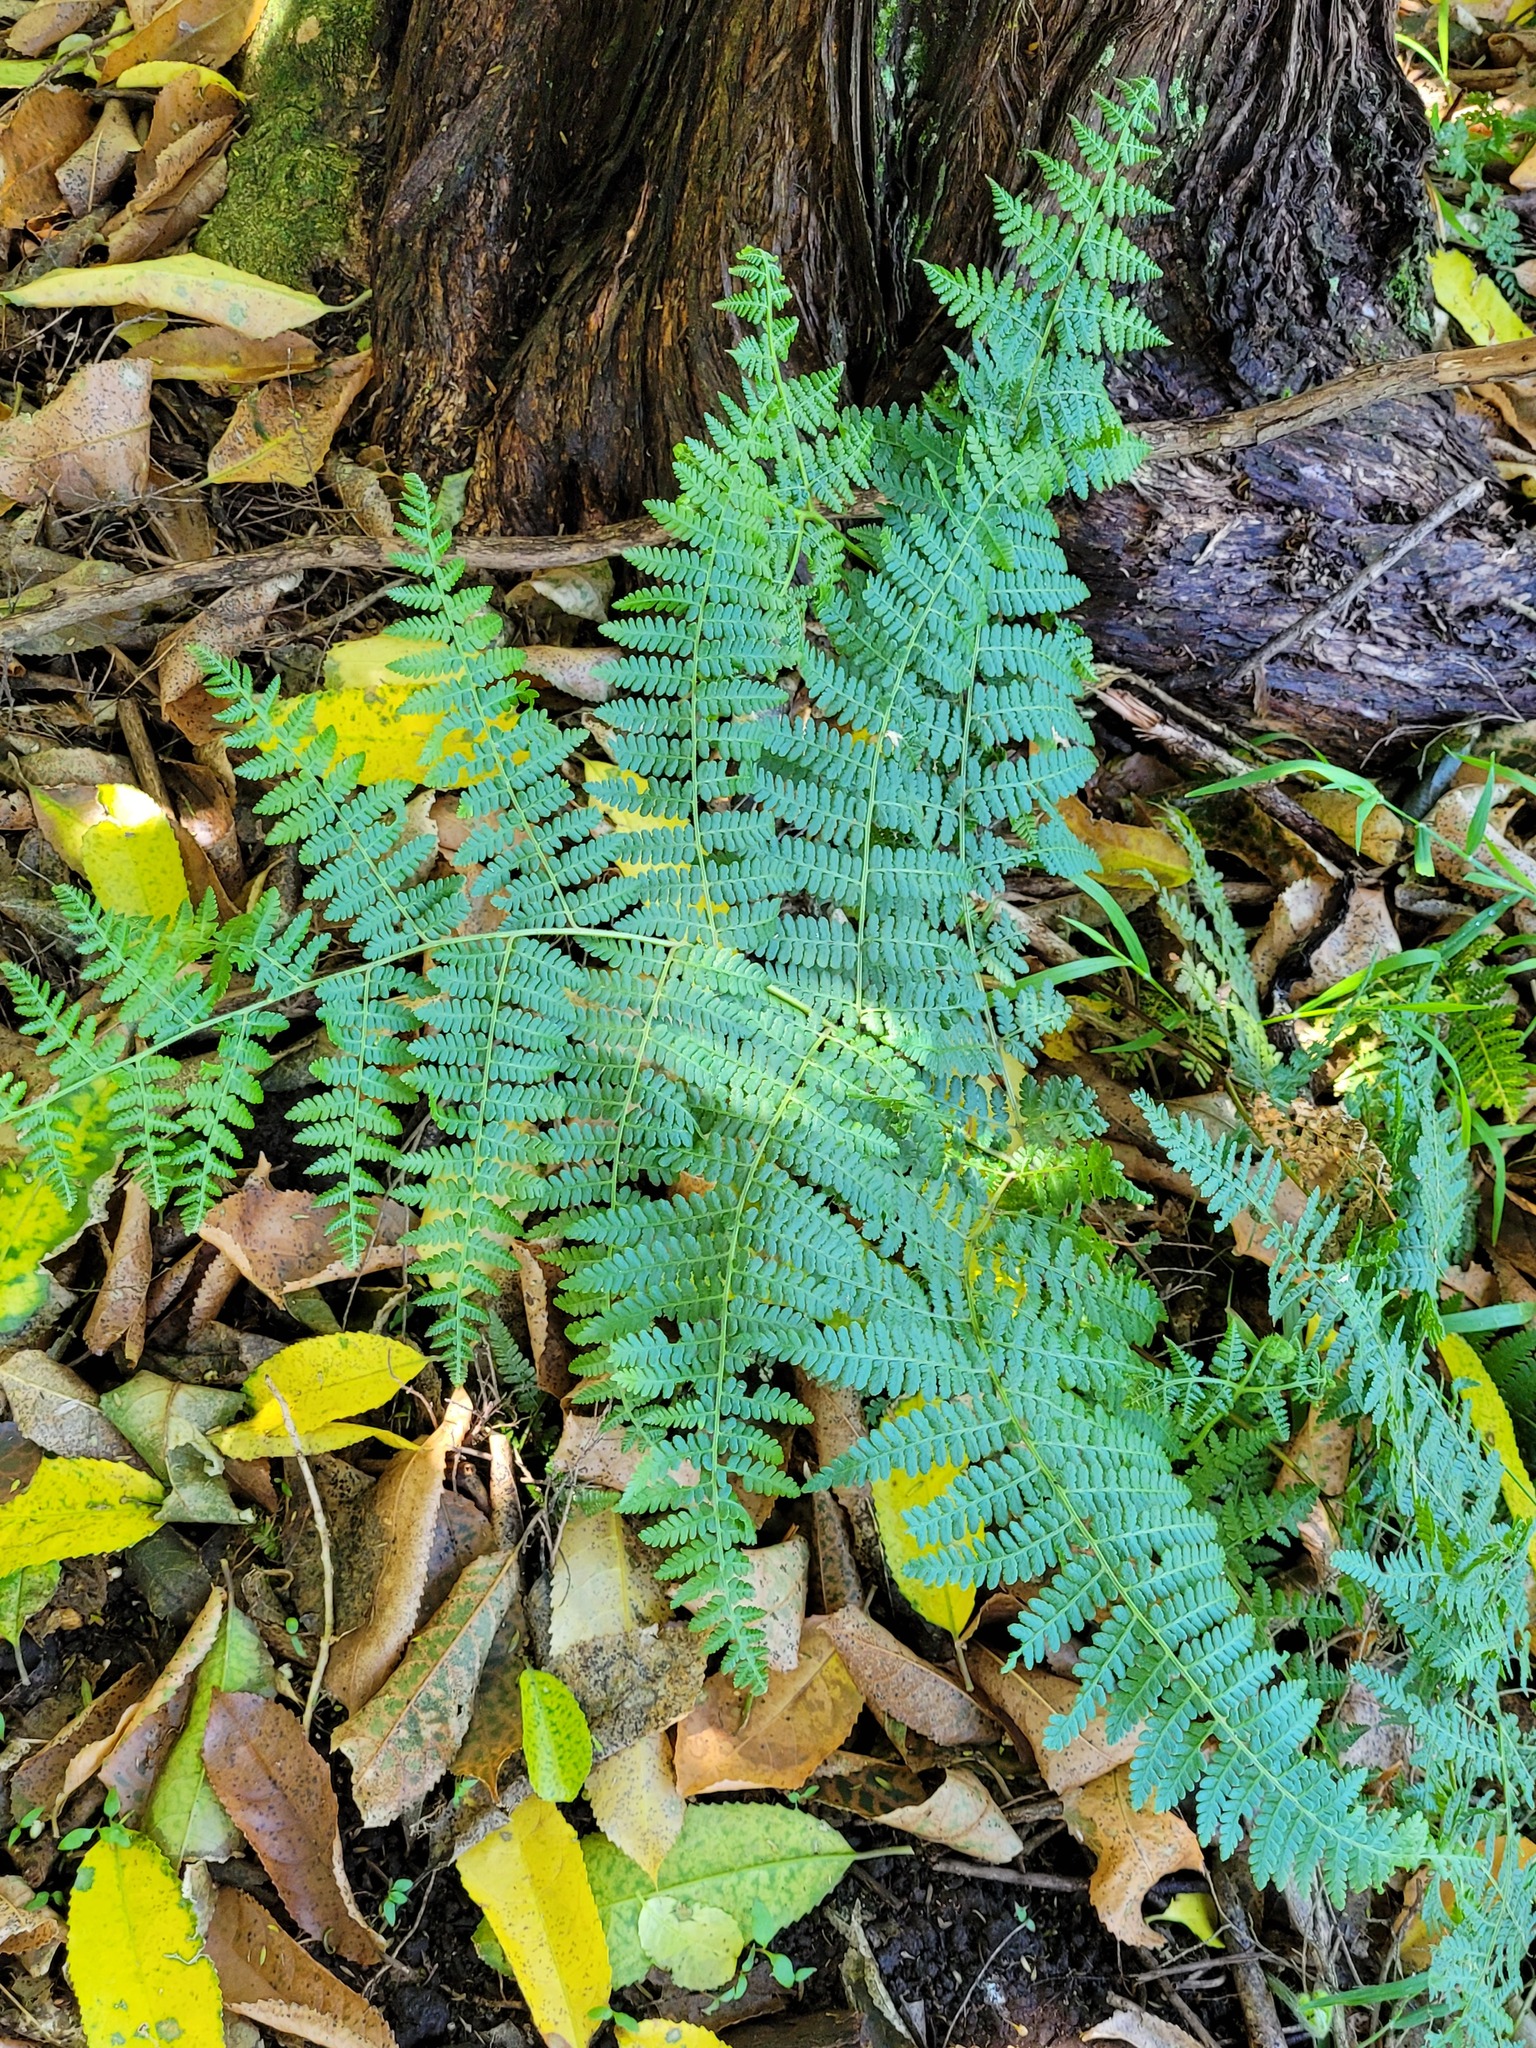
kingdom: Plantae
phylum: Tracheophyta
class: Polypodiopsida
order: Polypodiales
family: Dennstaedtiaceae
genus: Hypolepis
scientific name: Hypolepis ambigua
